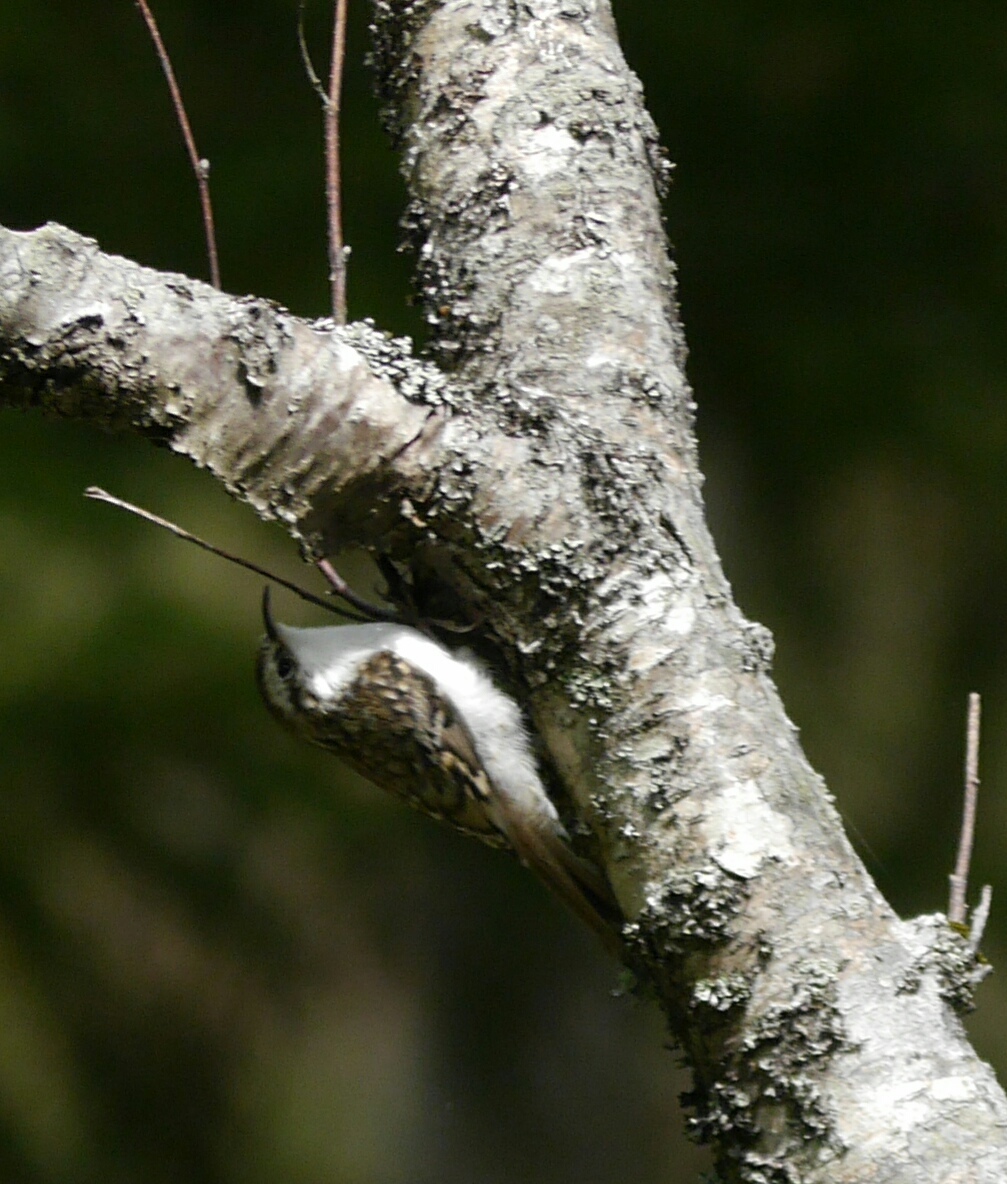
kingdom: Animalia
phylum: Chordata
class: Aves
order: Passeriformes
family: Certhiidae
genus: Certhia
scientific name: Certhia familiaris
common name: Eurasian treecreeper
